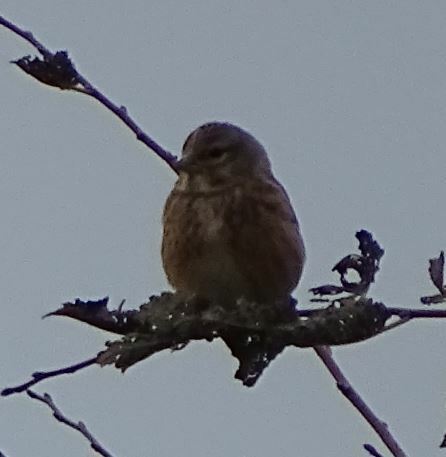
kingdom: Animalia
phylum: Chordata
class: Aves
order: Passeriformes
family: Fringillidae
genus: Linaria
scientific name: Linaria cannabina
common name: Common linnet
